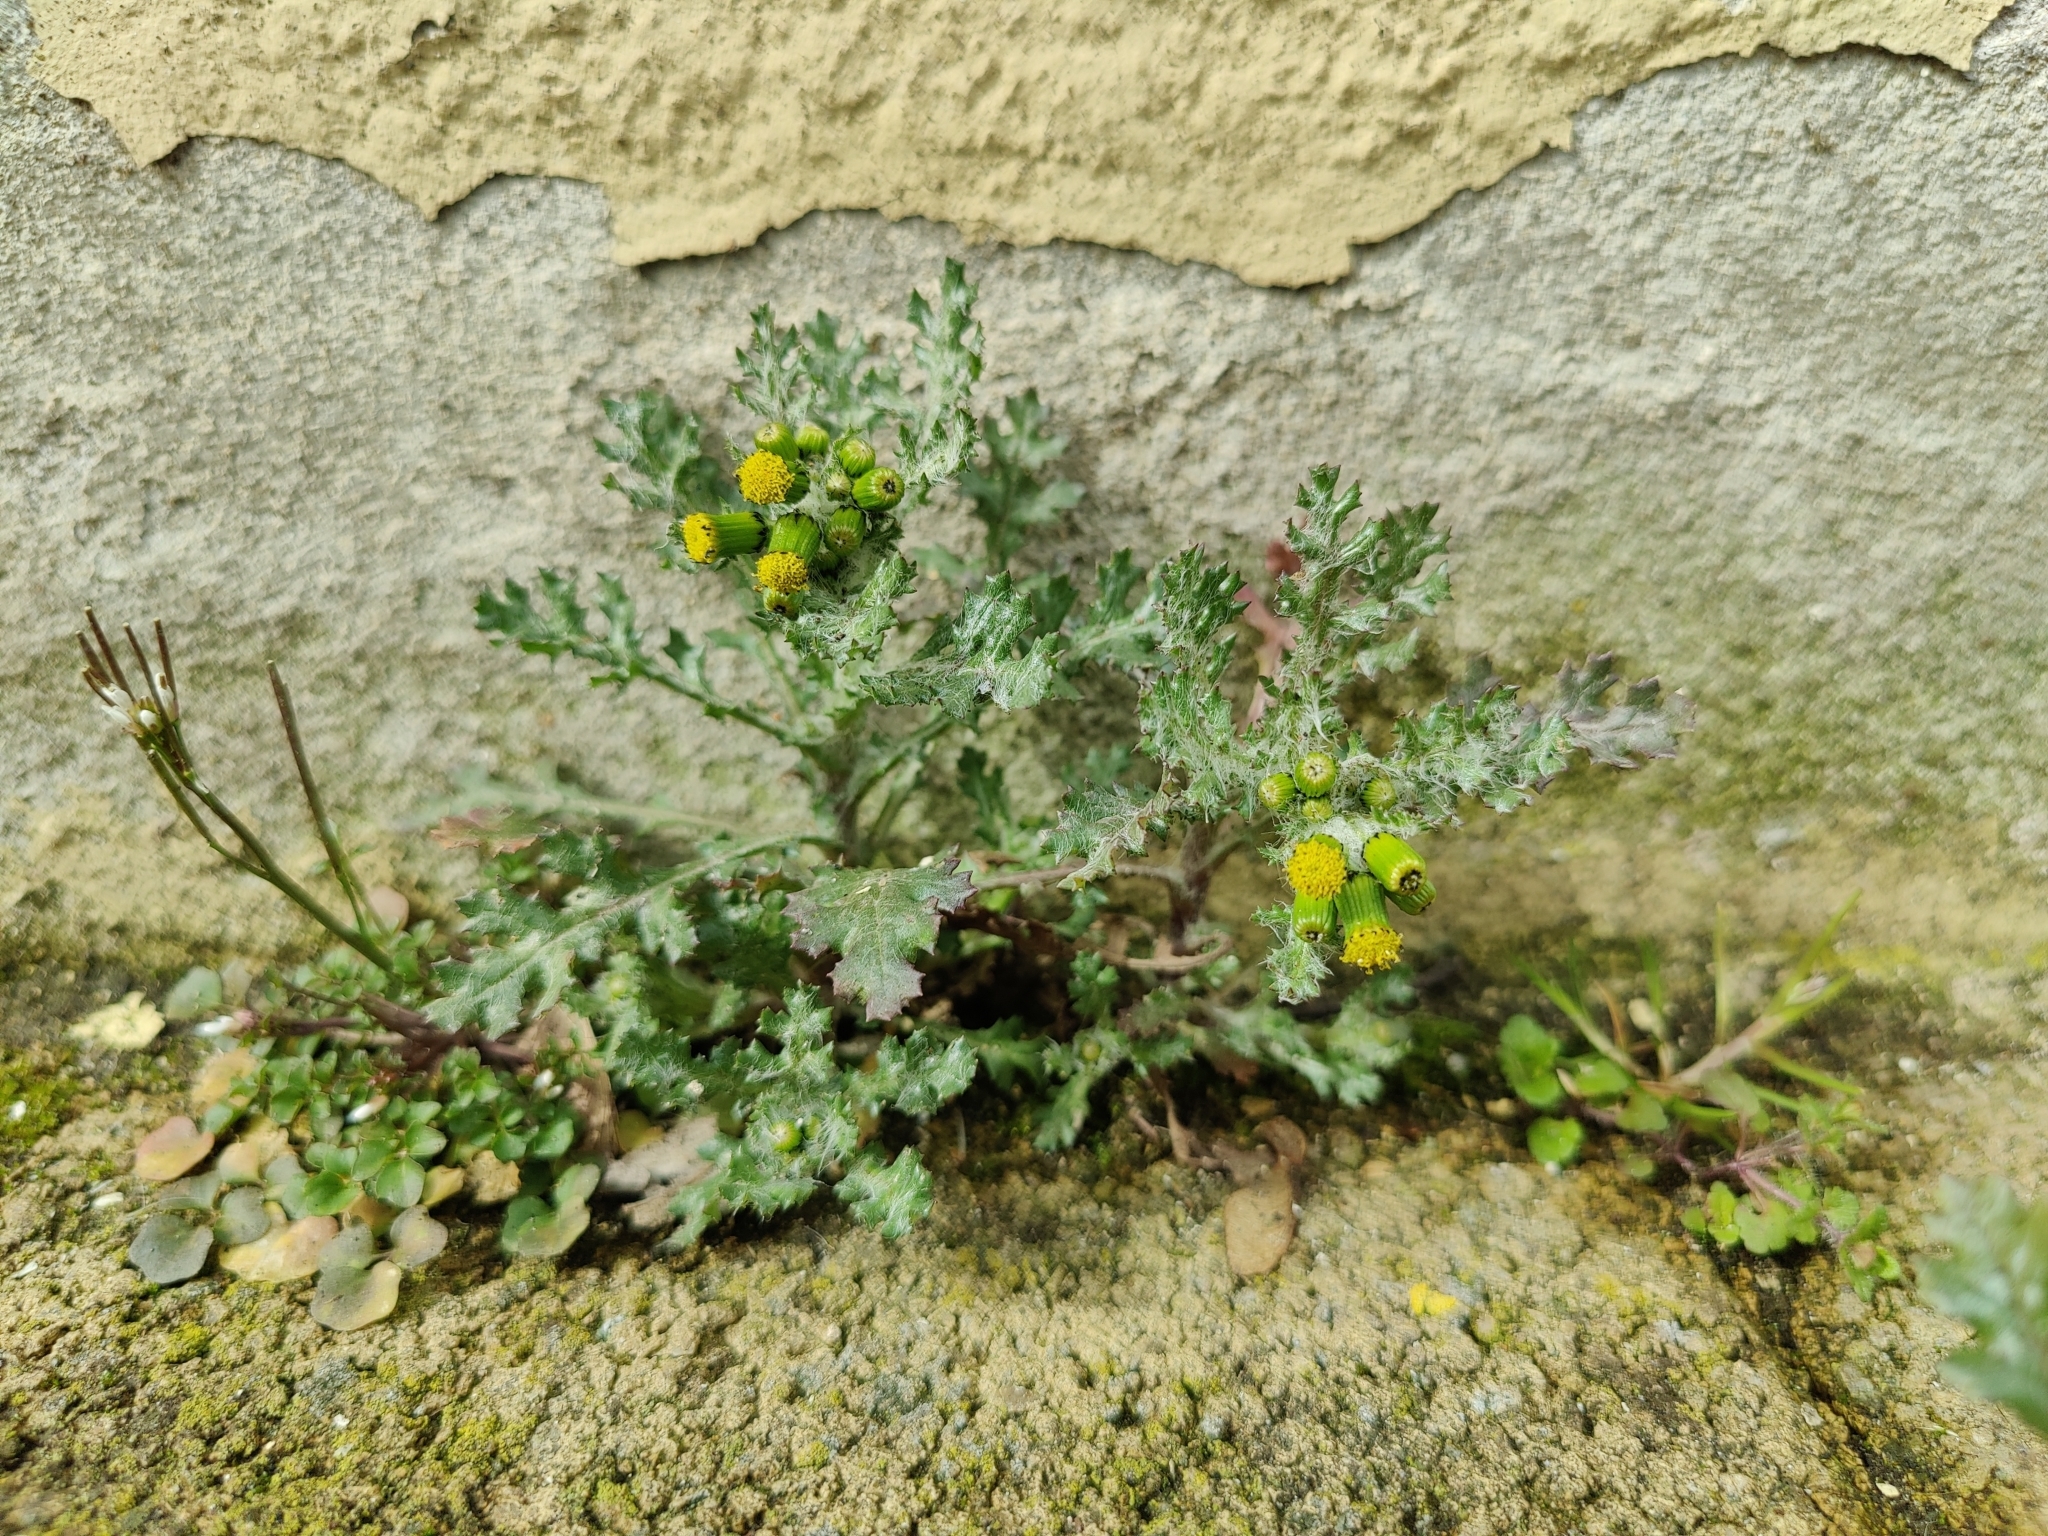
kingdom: Plantae
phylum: Tracheophyta
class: Magnoliopsida
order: Asterales
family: Asteraceae
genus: Senecio
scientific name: Senecio vulgaris
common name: Old-man-in-the-spring
